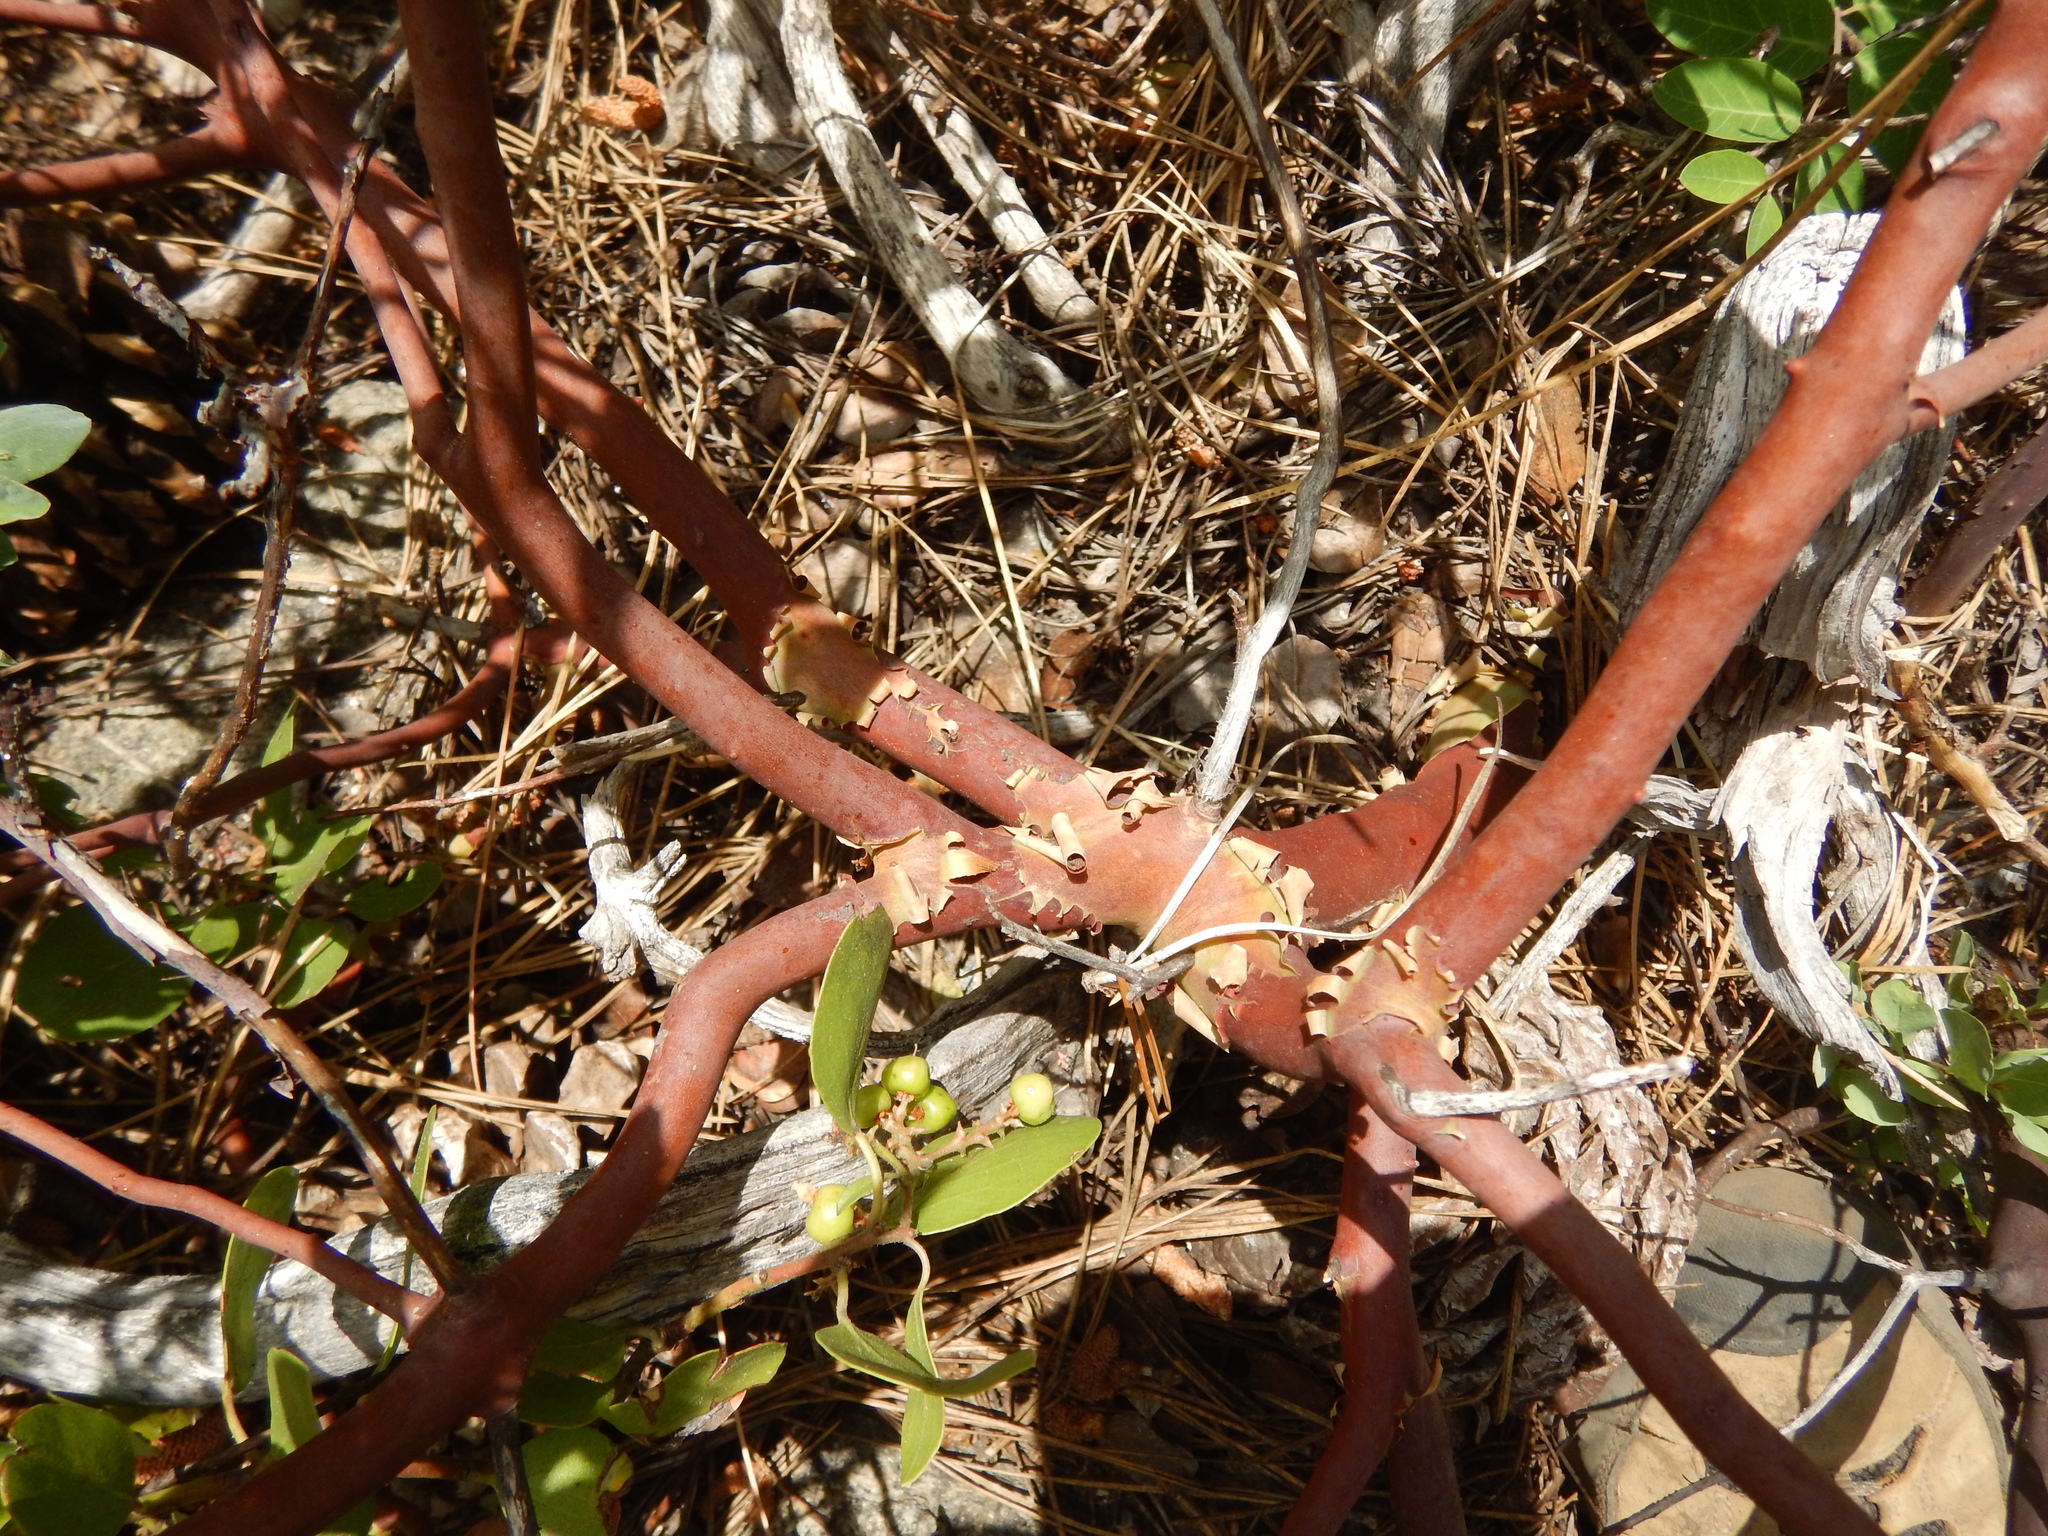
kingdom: Plantae
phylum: Tracheophyta
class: Magnoliopsida
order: Ericales
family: Ericaceae
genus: Arctostaphylos
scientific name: Arctostaphylos patula
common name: Green-leaf manzanita
